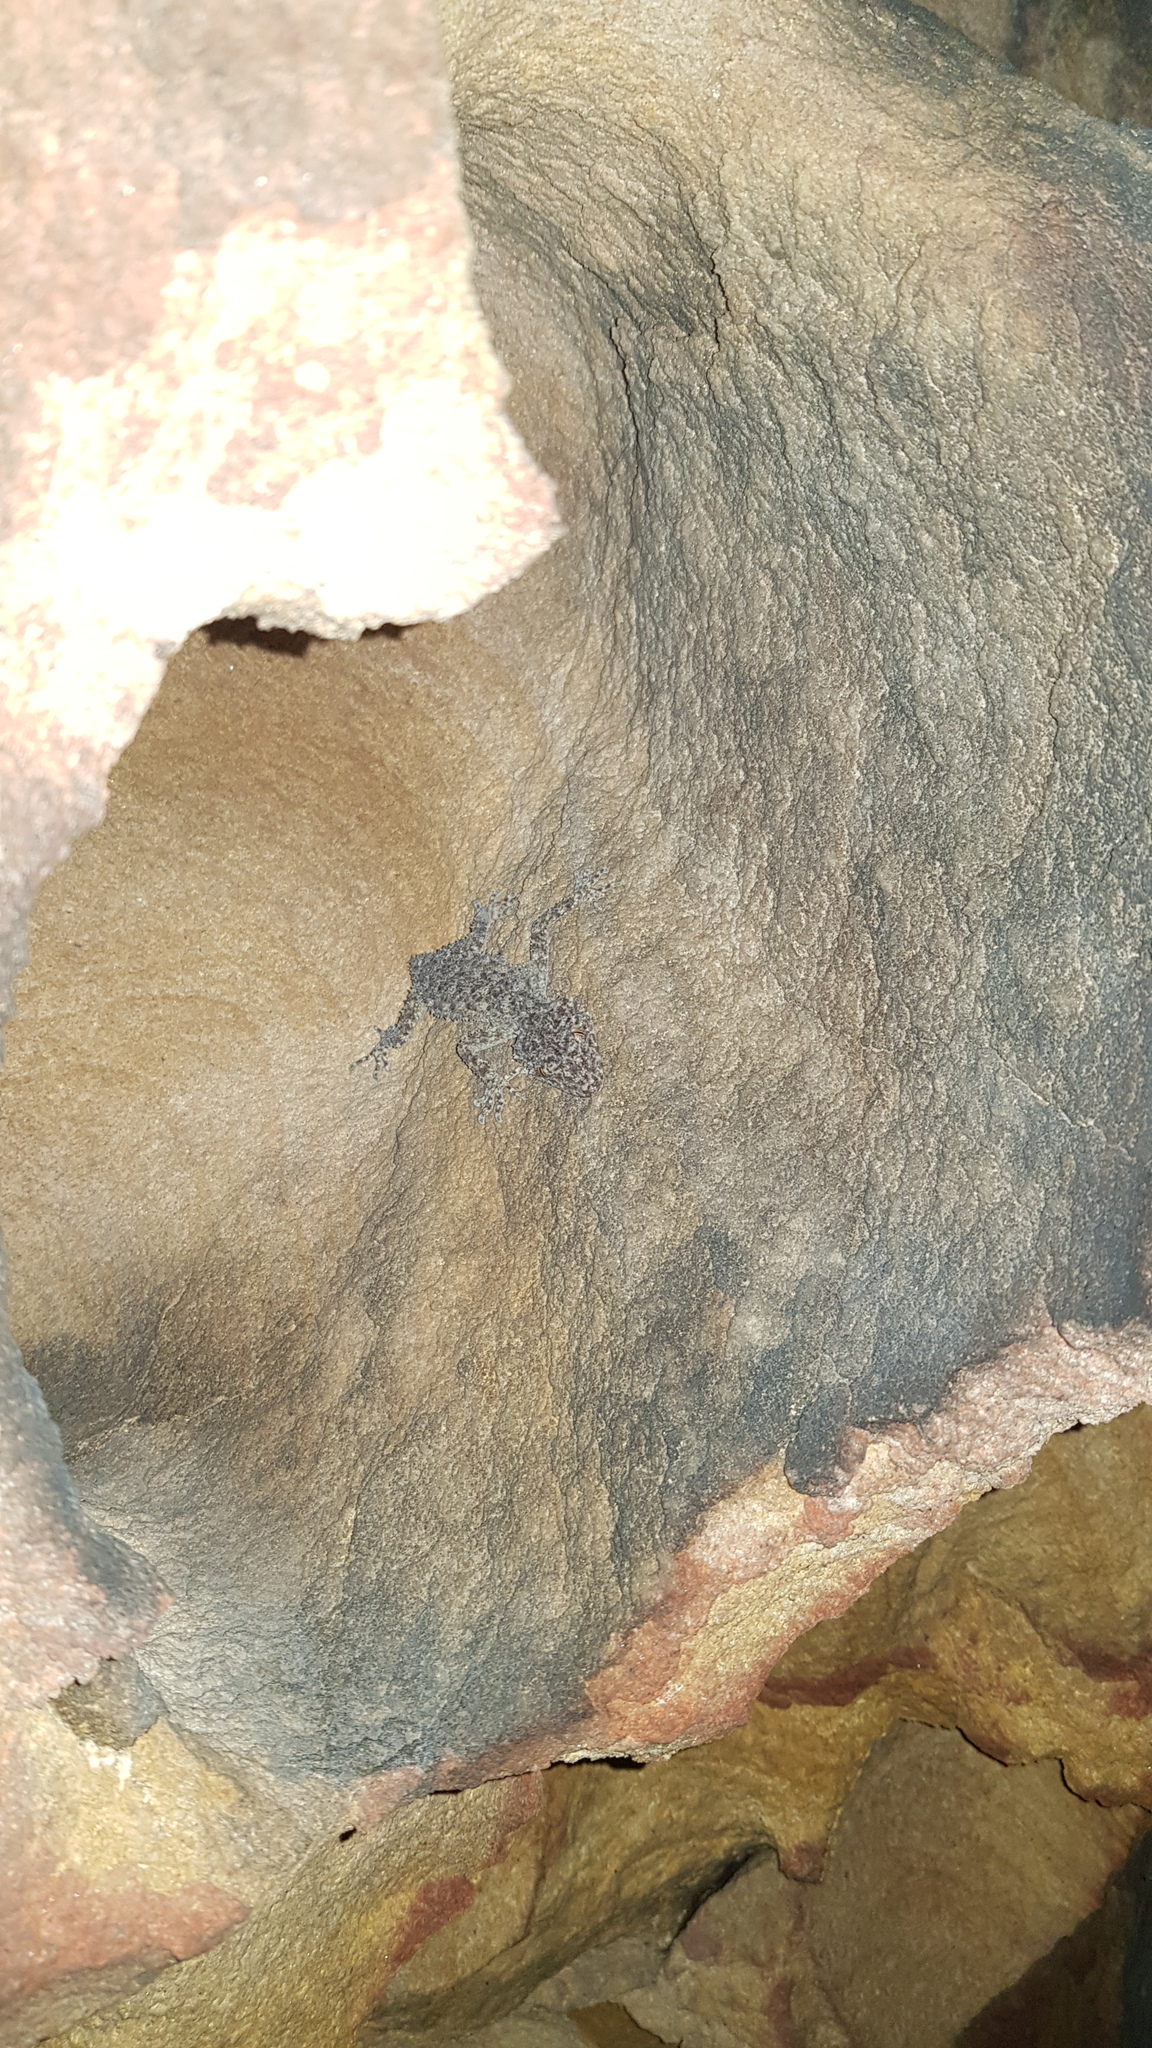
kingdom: Animalia
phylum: Chordata
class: Squamata
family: Carphodactylidae
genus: Phyllurus
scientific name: Phyllurus platurus
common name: Broad-tailed gecko
